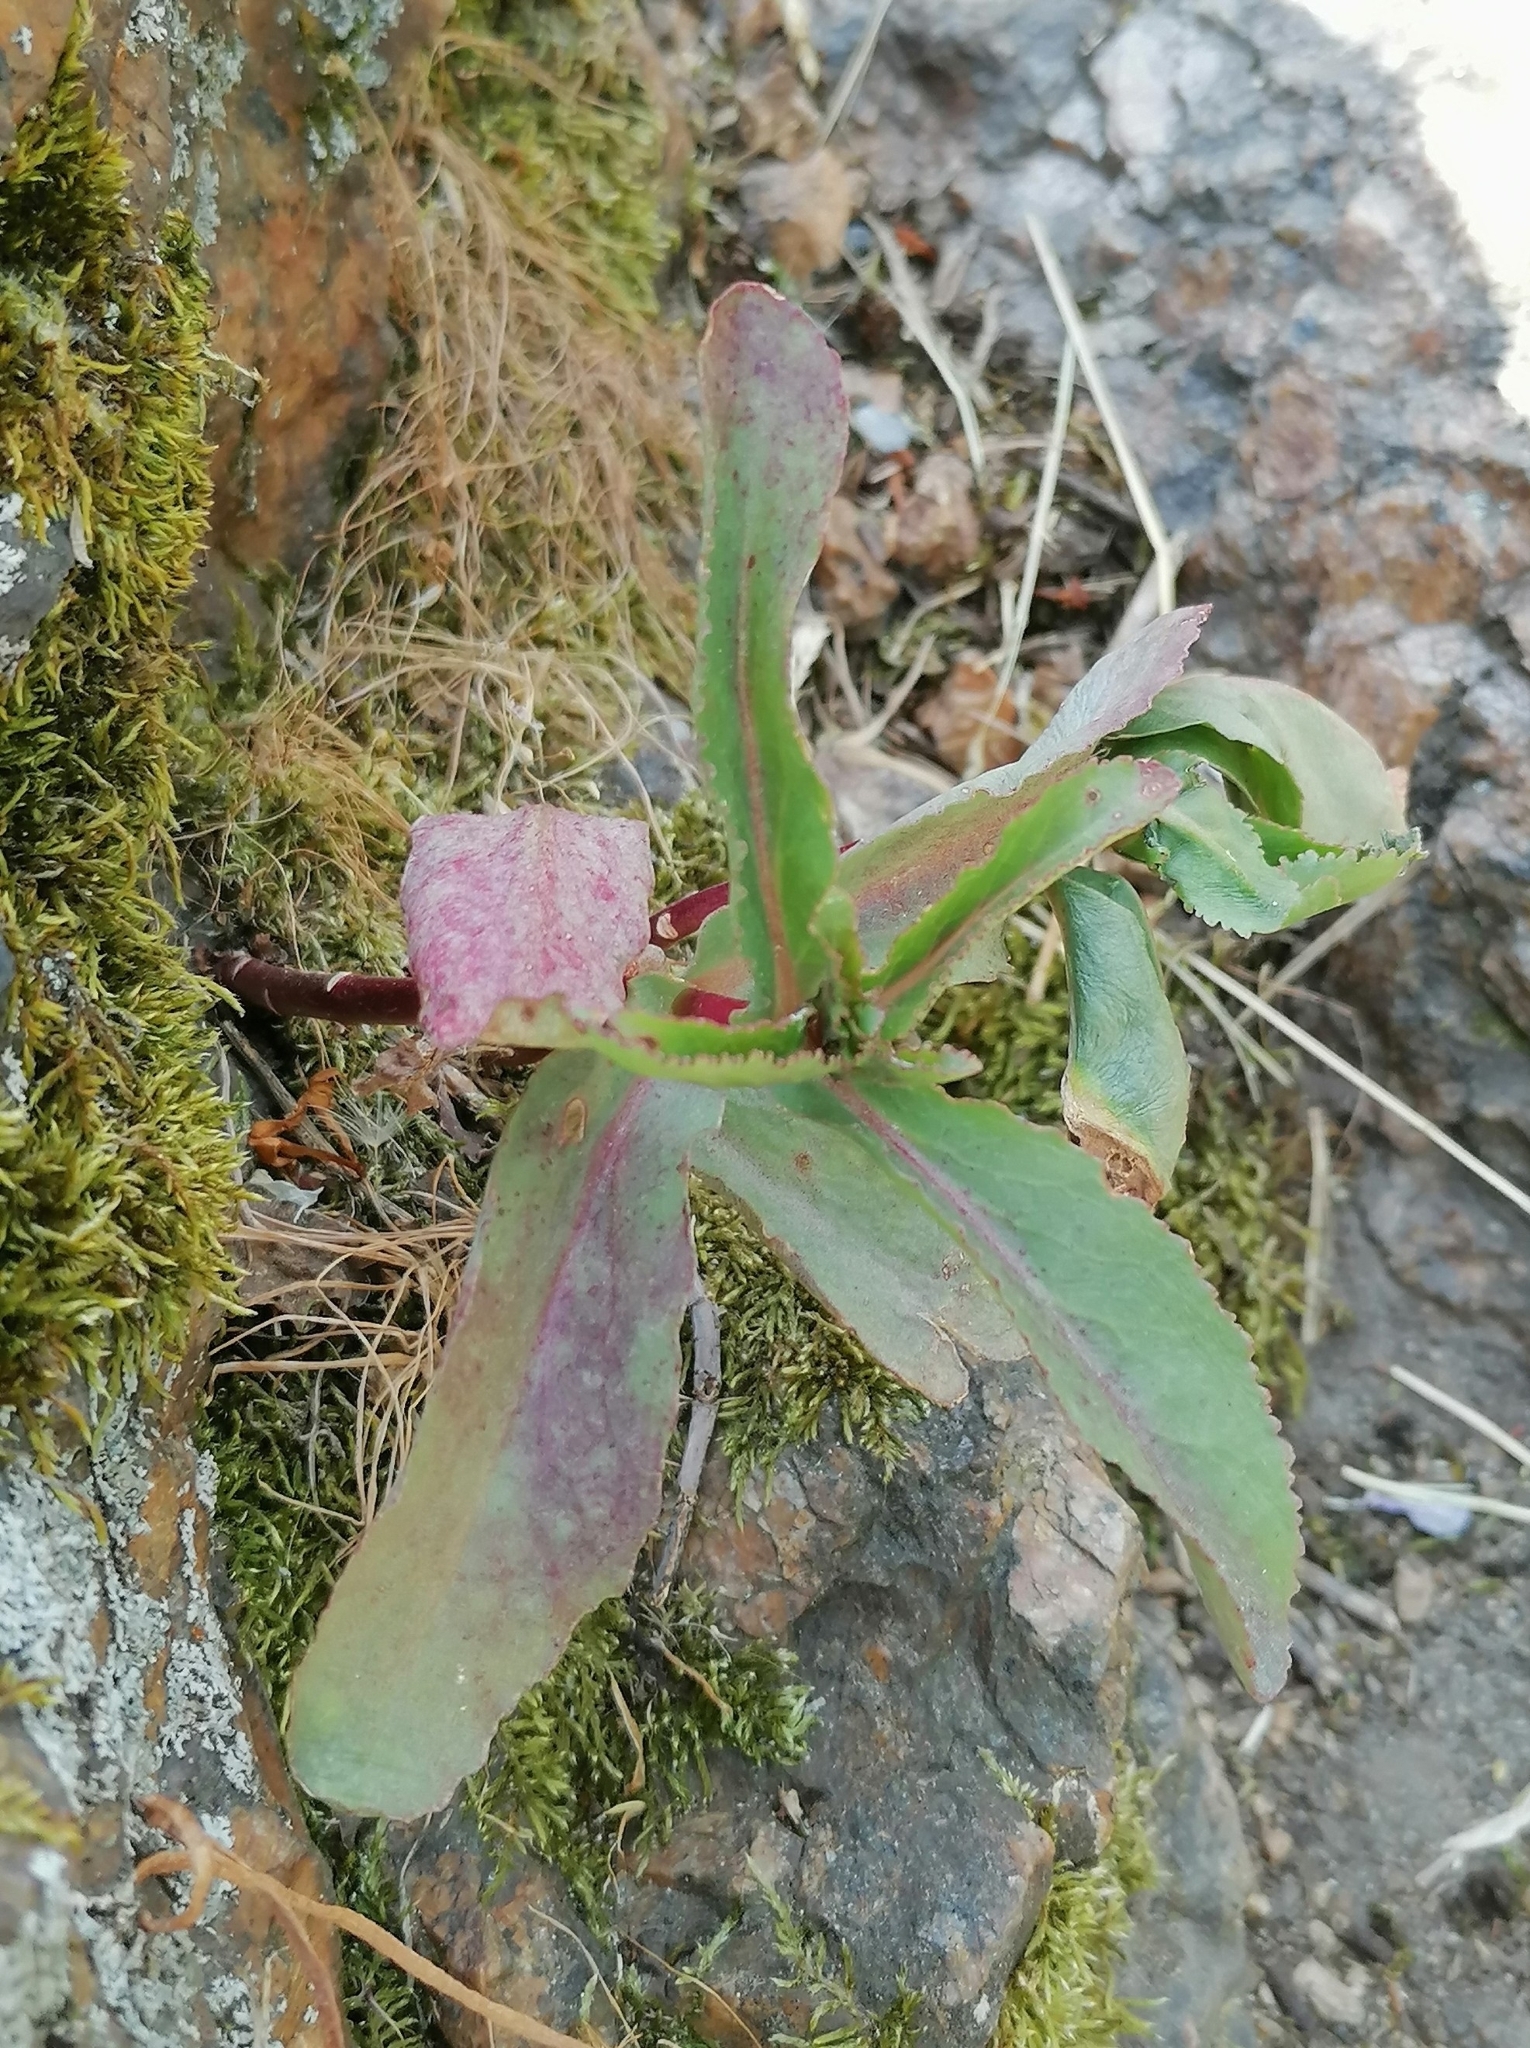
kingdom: Plantae
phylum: Tracheophyta
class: Magnoliopsida
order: Saxifragales
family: Crassulaceae
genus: Hylotelephium
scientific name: Hylotelephium maximum
